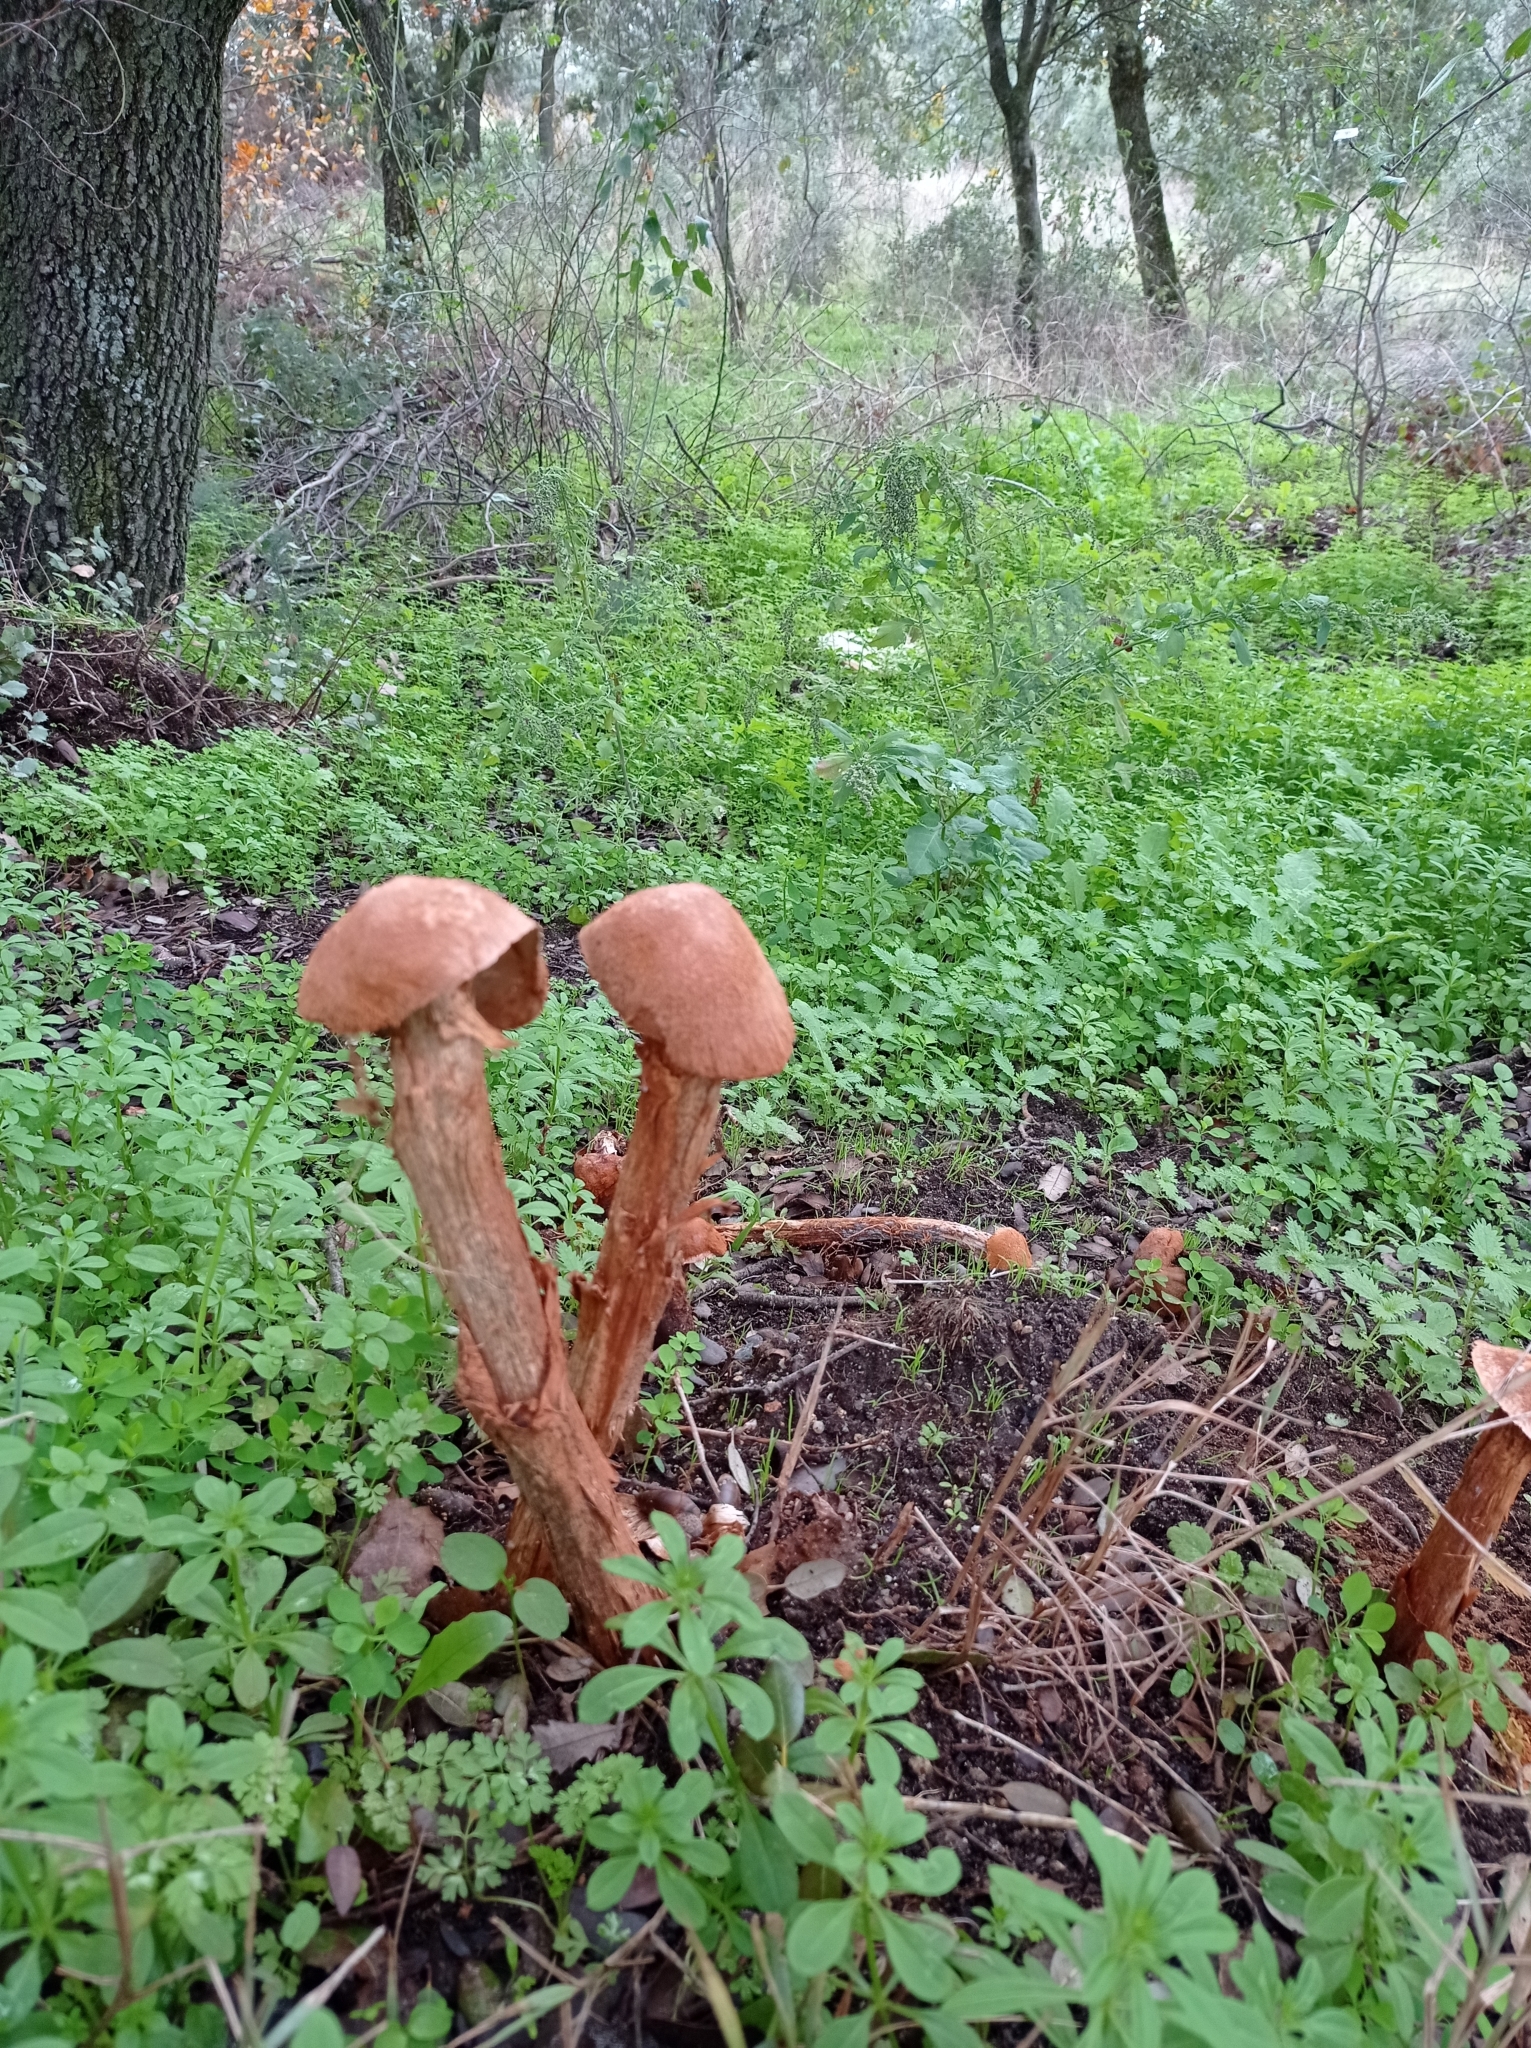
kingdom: Fungi
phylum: Basidiomycota
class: Agaricomycetes
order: Agaricales
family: Agaricaceae
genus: Battarrea
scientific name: Battarrea phalloides
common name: Sandy stiltball
